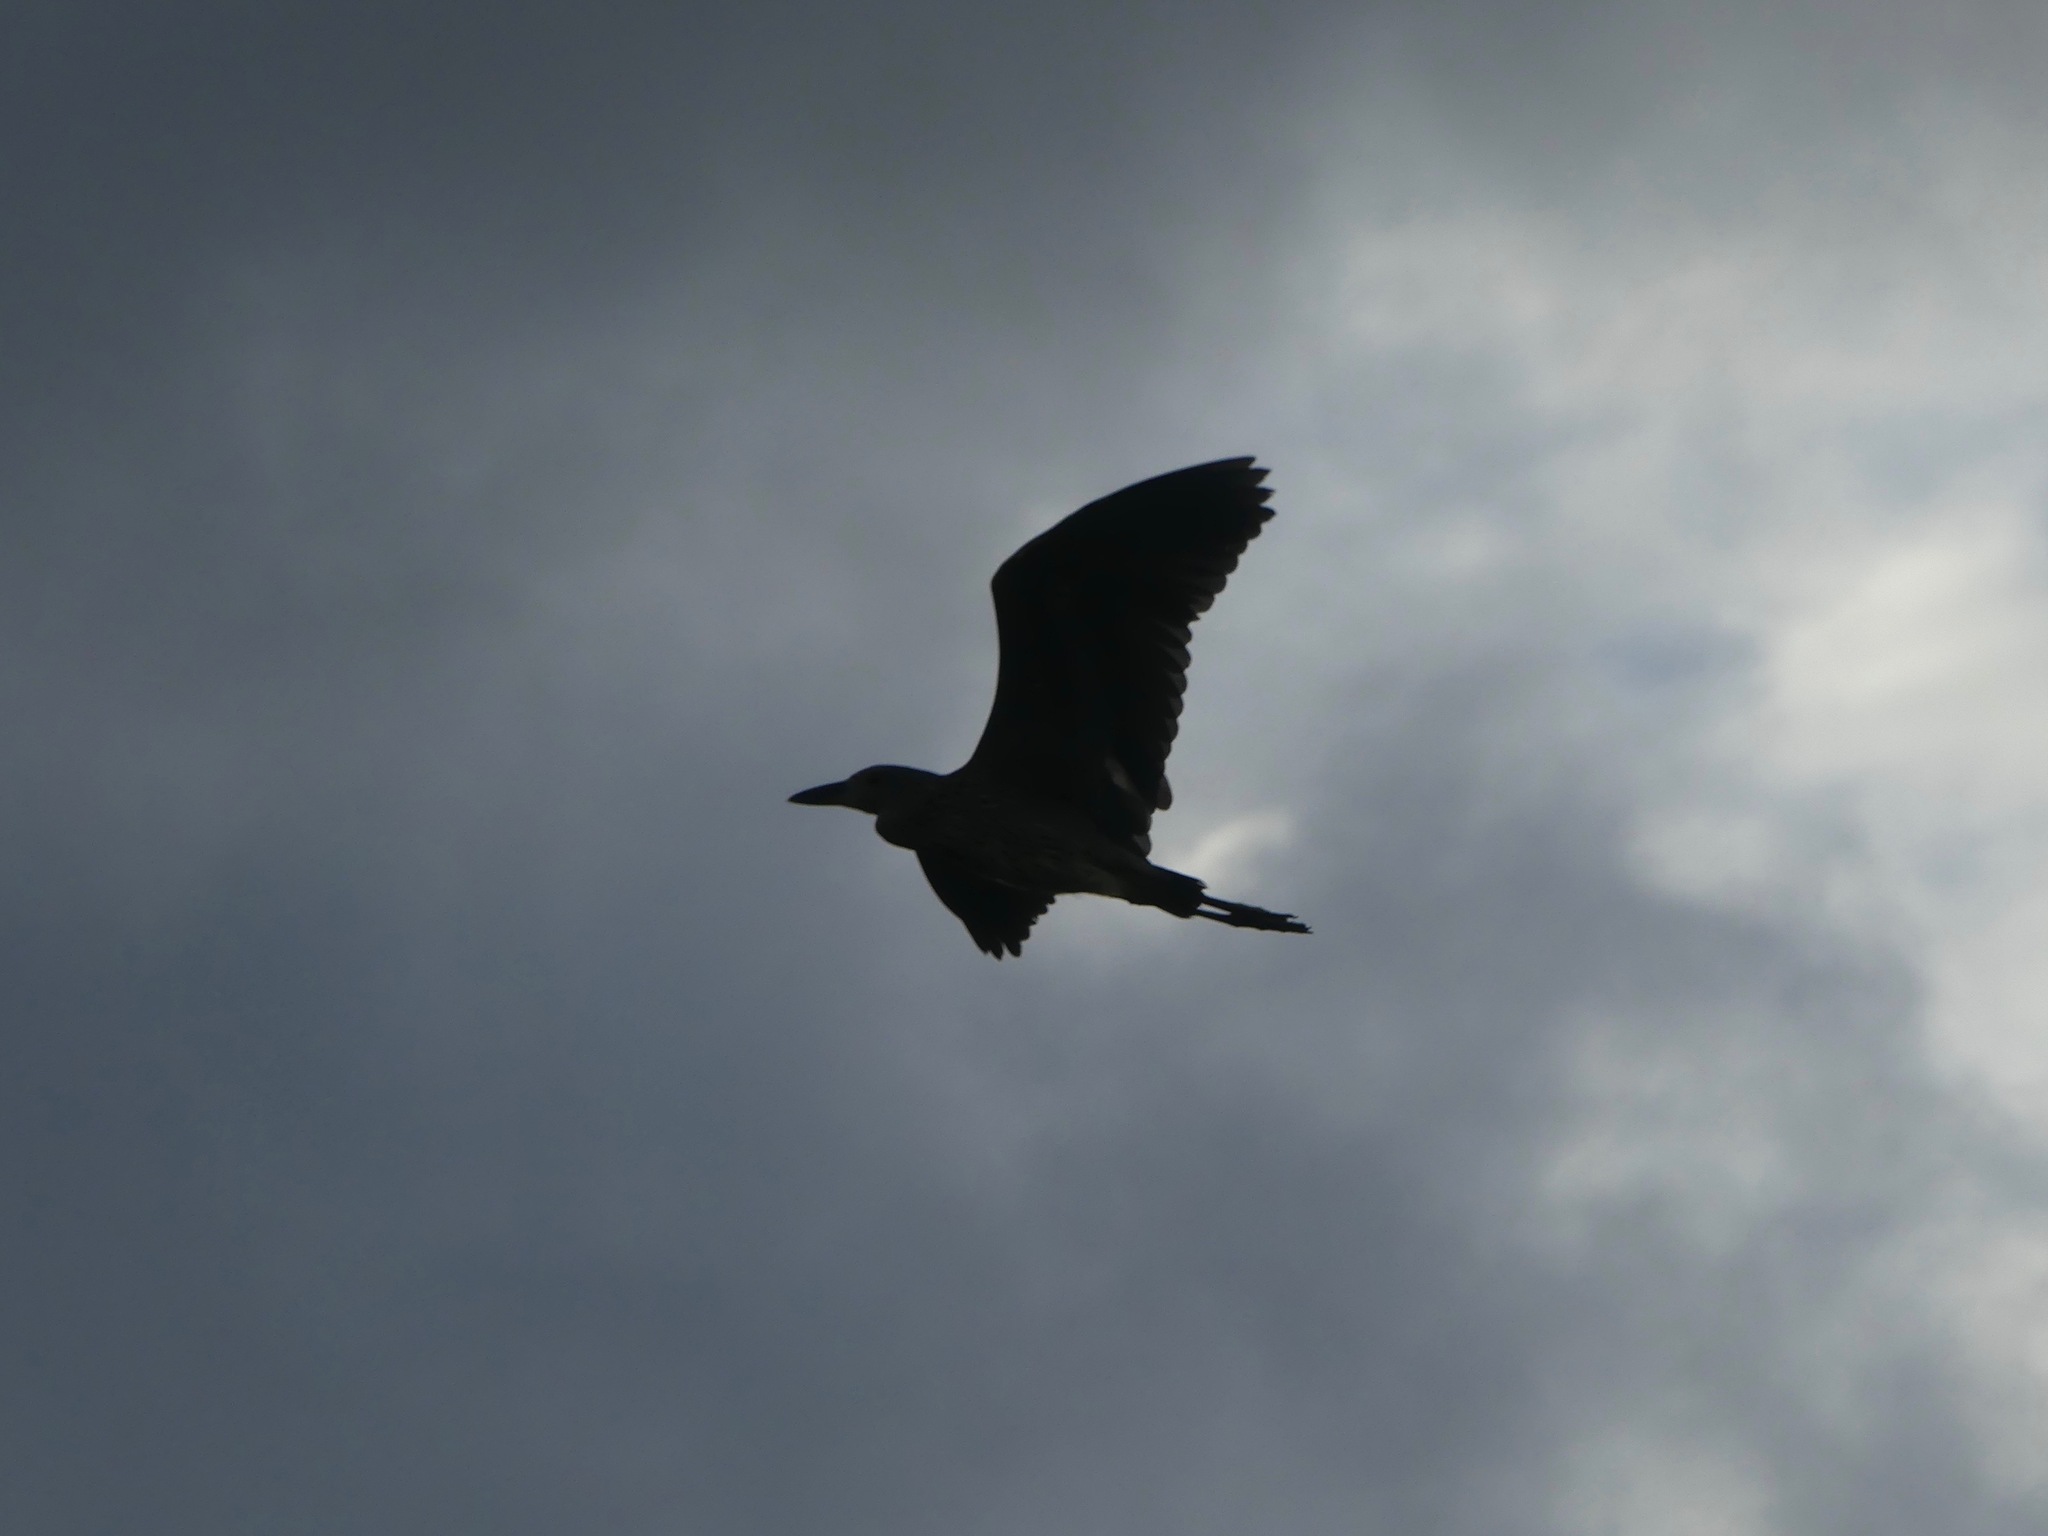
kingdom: Animalia
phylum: Chordata
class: Aves
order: Pelecaniformes
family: Ardeidae
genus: Nyctanassa
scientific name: Nyctanassa violacea
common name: Yellow-crowned night heron
